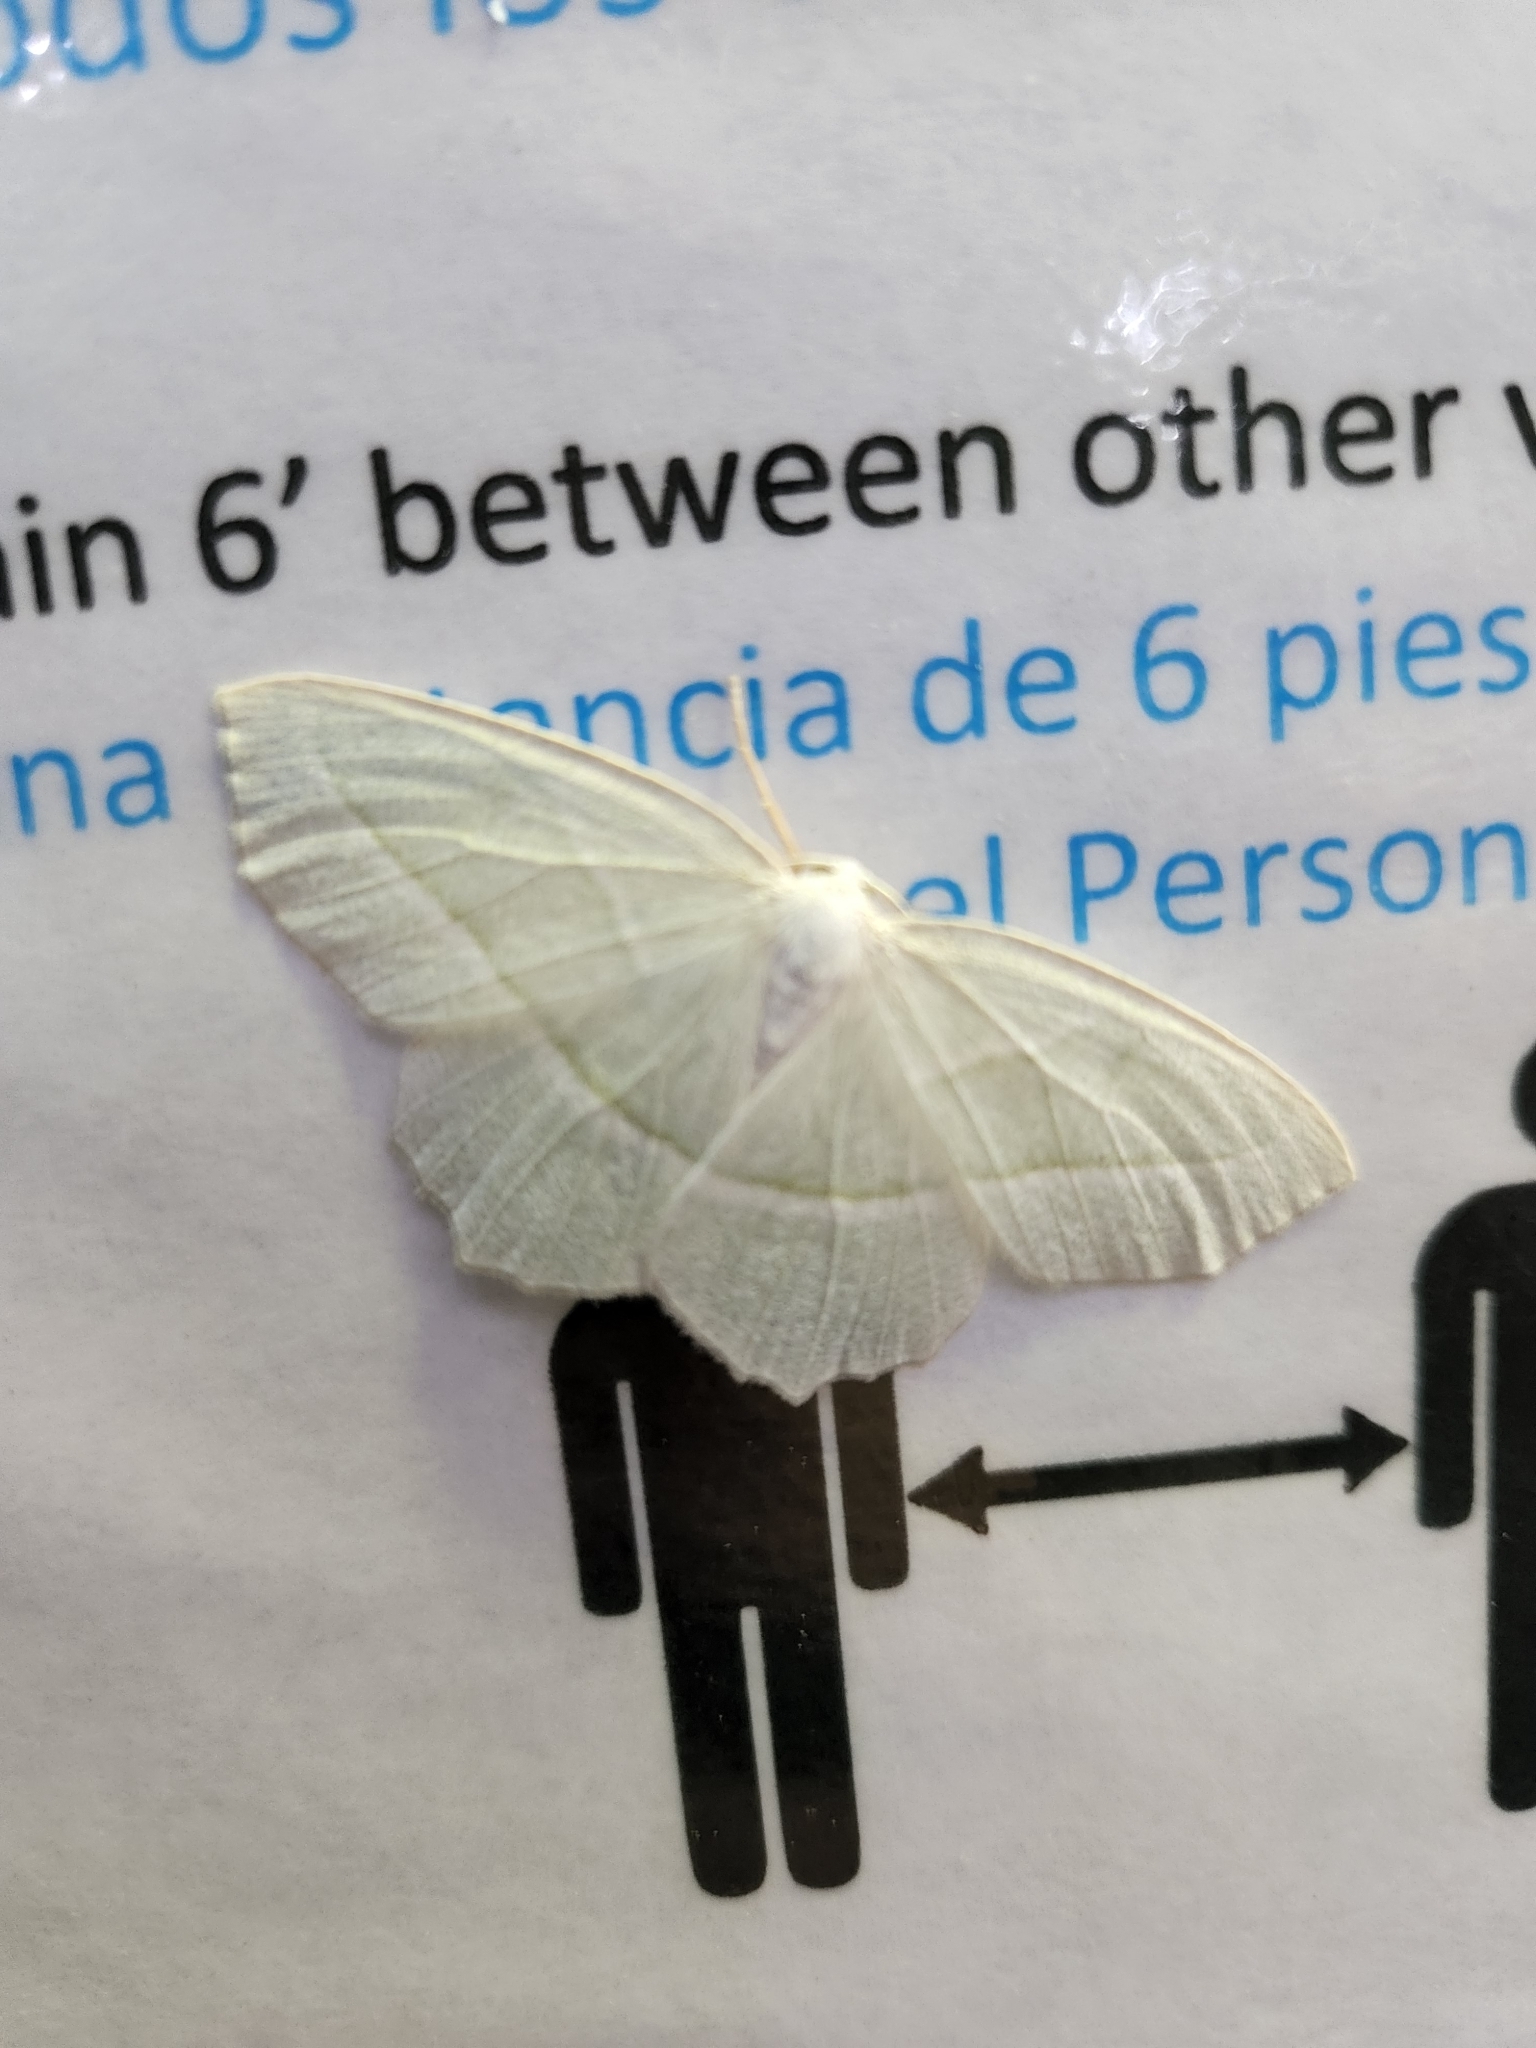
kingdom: Animalia
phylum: Arthropoda
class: Insecta
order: Lepidoptera
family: Geometridae
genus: Campaea
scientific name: Campaea perlata
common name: Fringed looper
